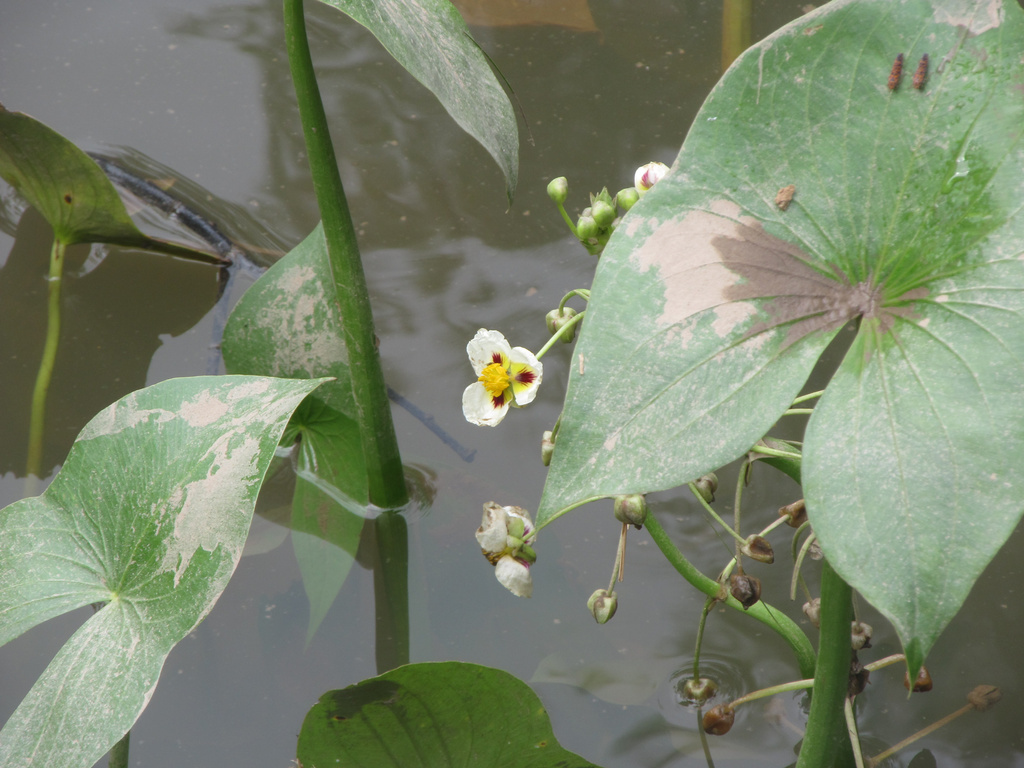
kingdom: Plantae
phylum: Tracheophyta
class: Liliopsida
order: Alismatales
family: Alismataceae
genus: Sagittaria
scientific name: Sagittaria montevidensis
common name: Giant arrowhead
